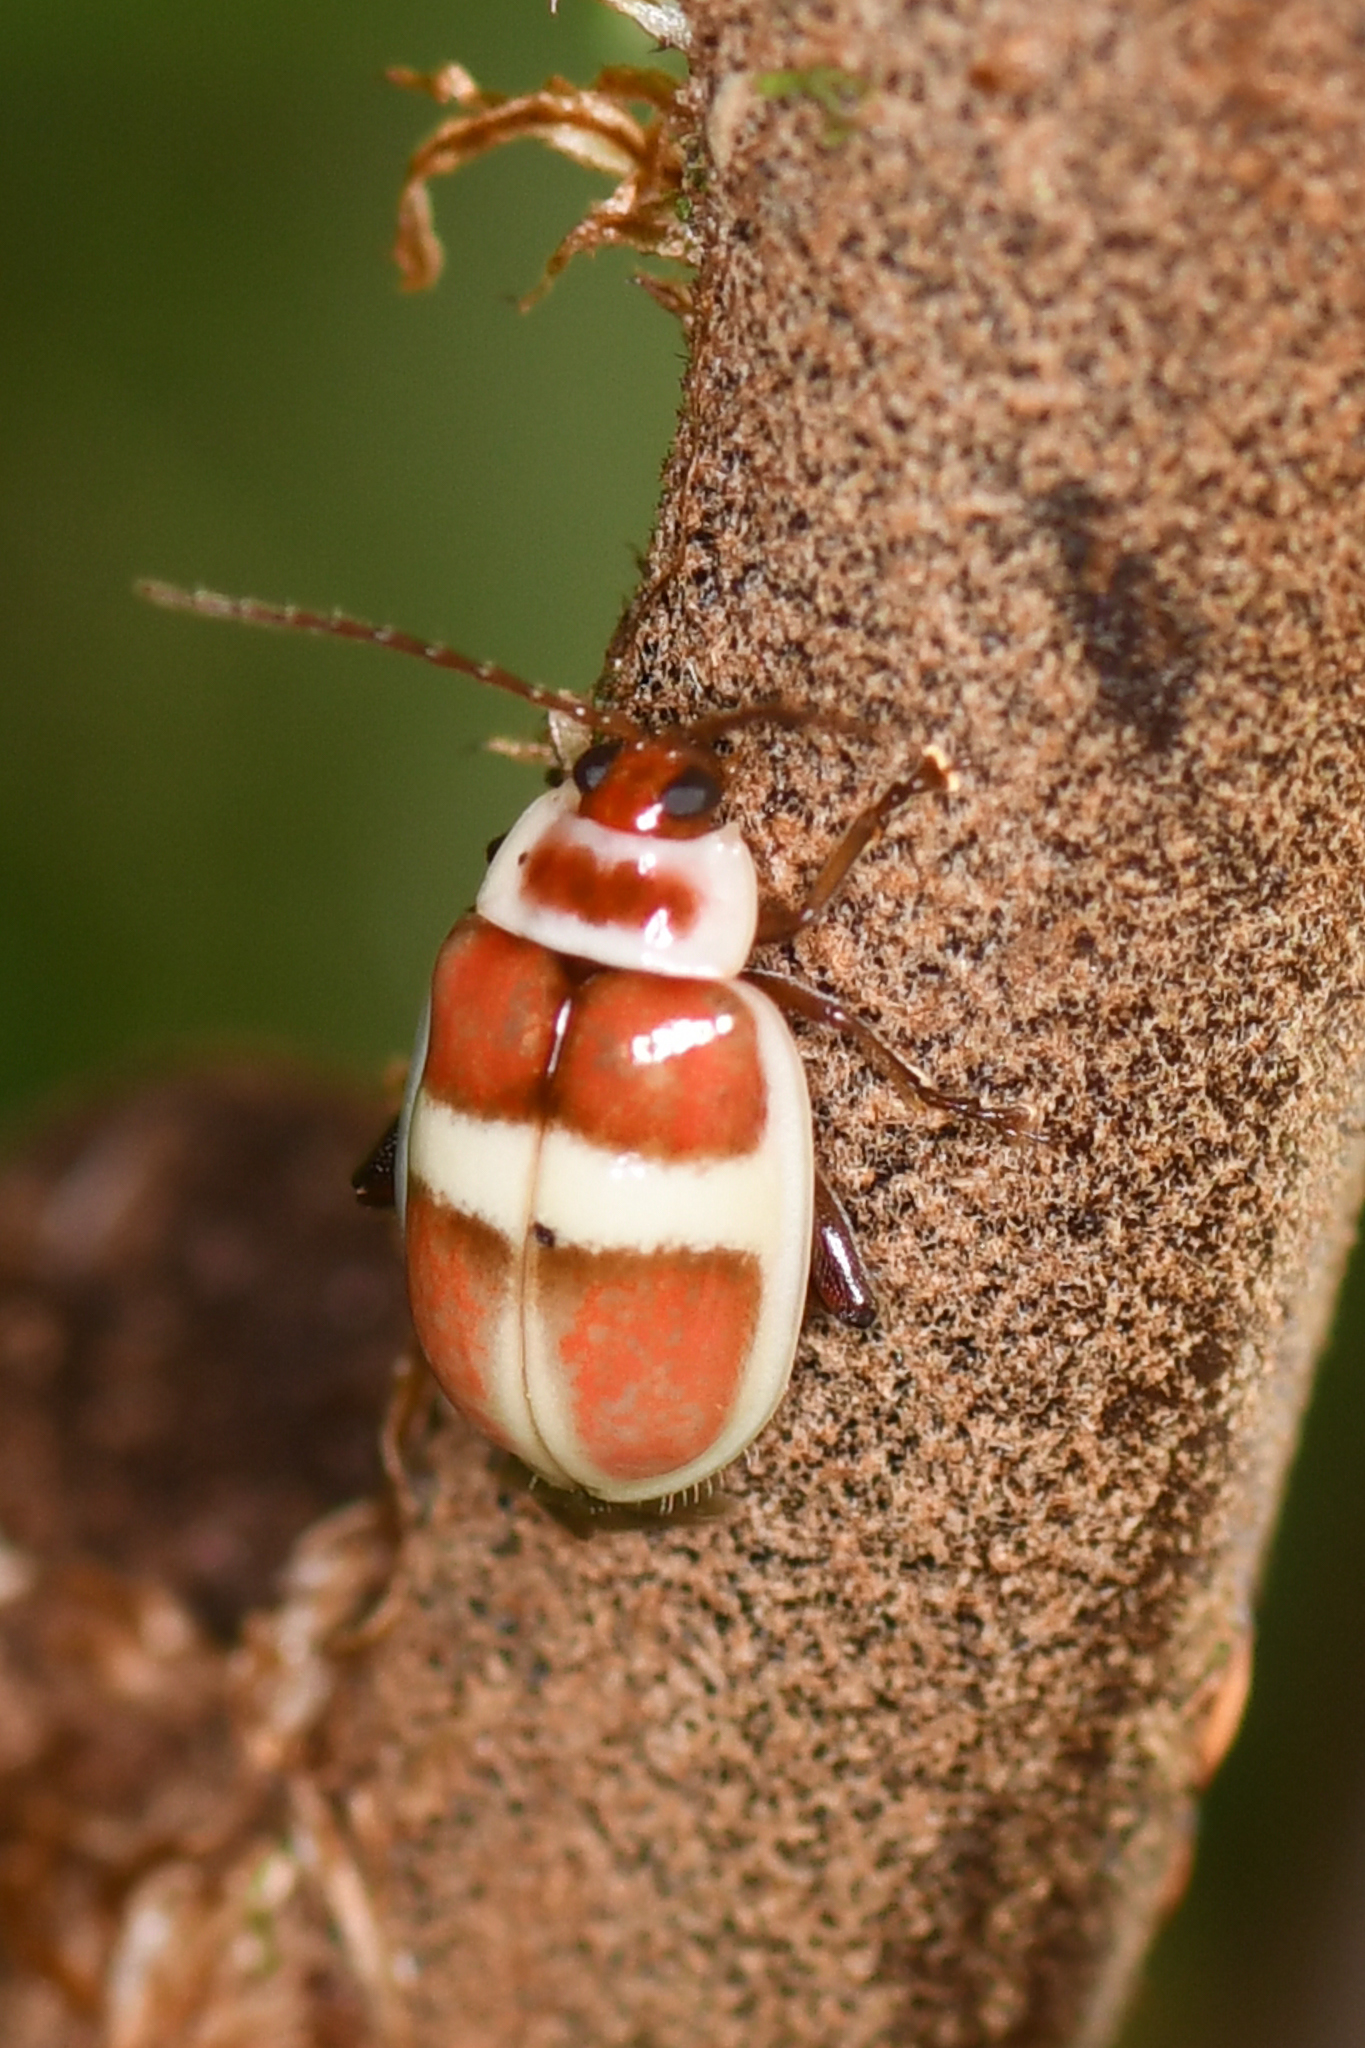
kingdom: Animalia
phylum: Arthropoda
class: Insecta
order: Coleoptera
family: Chrysomelidae
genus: Asphaera
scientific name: Asphaera discicollis
